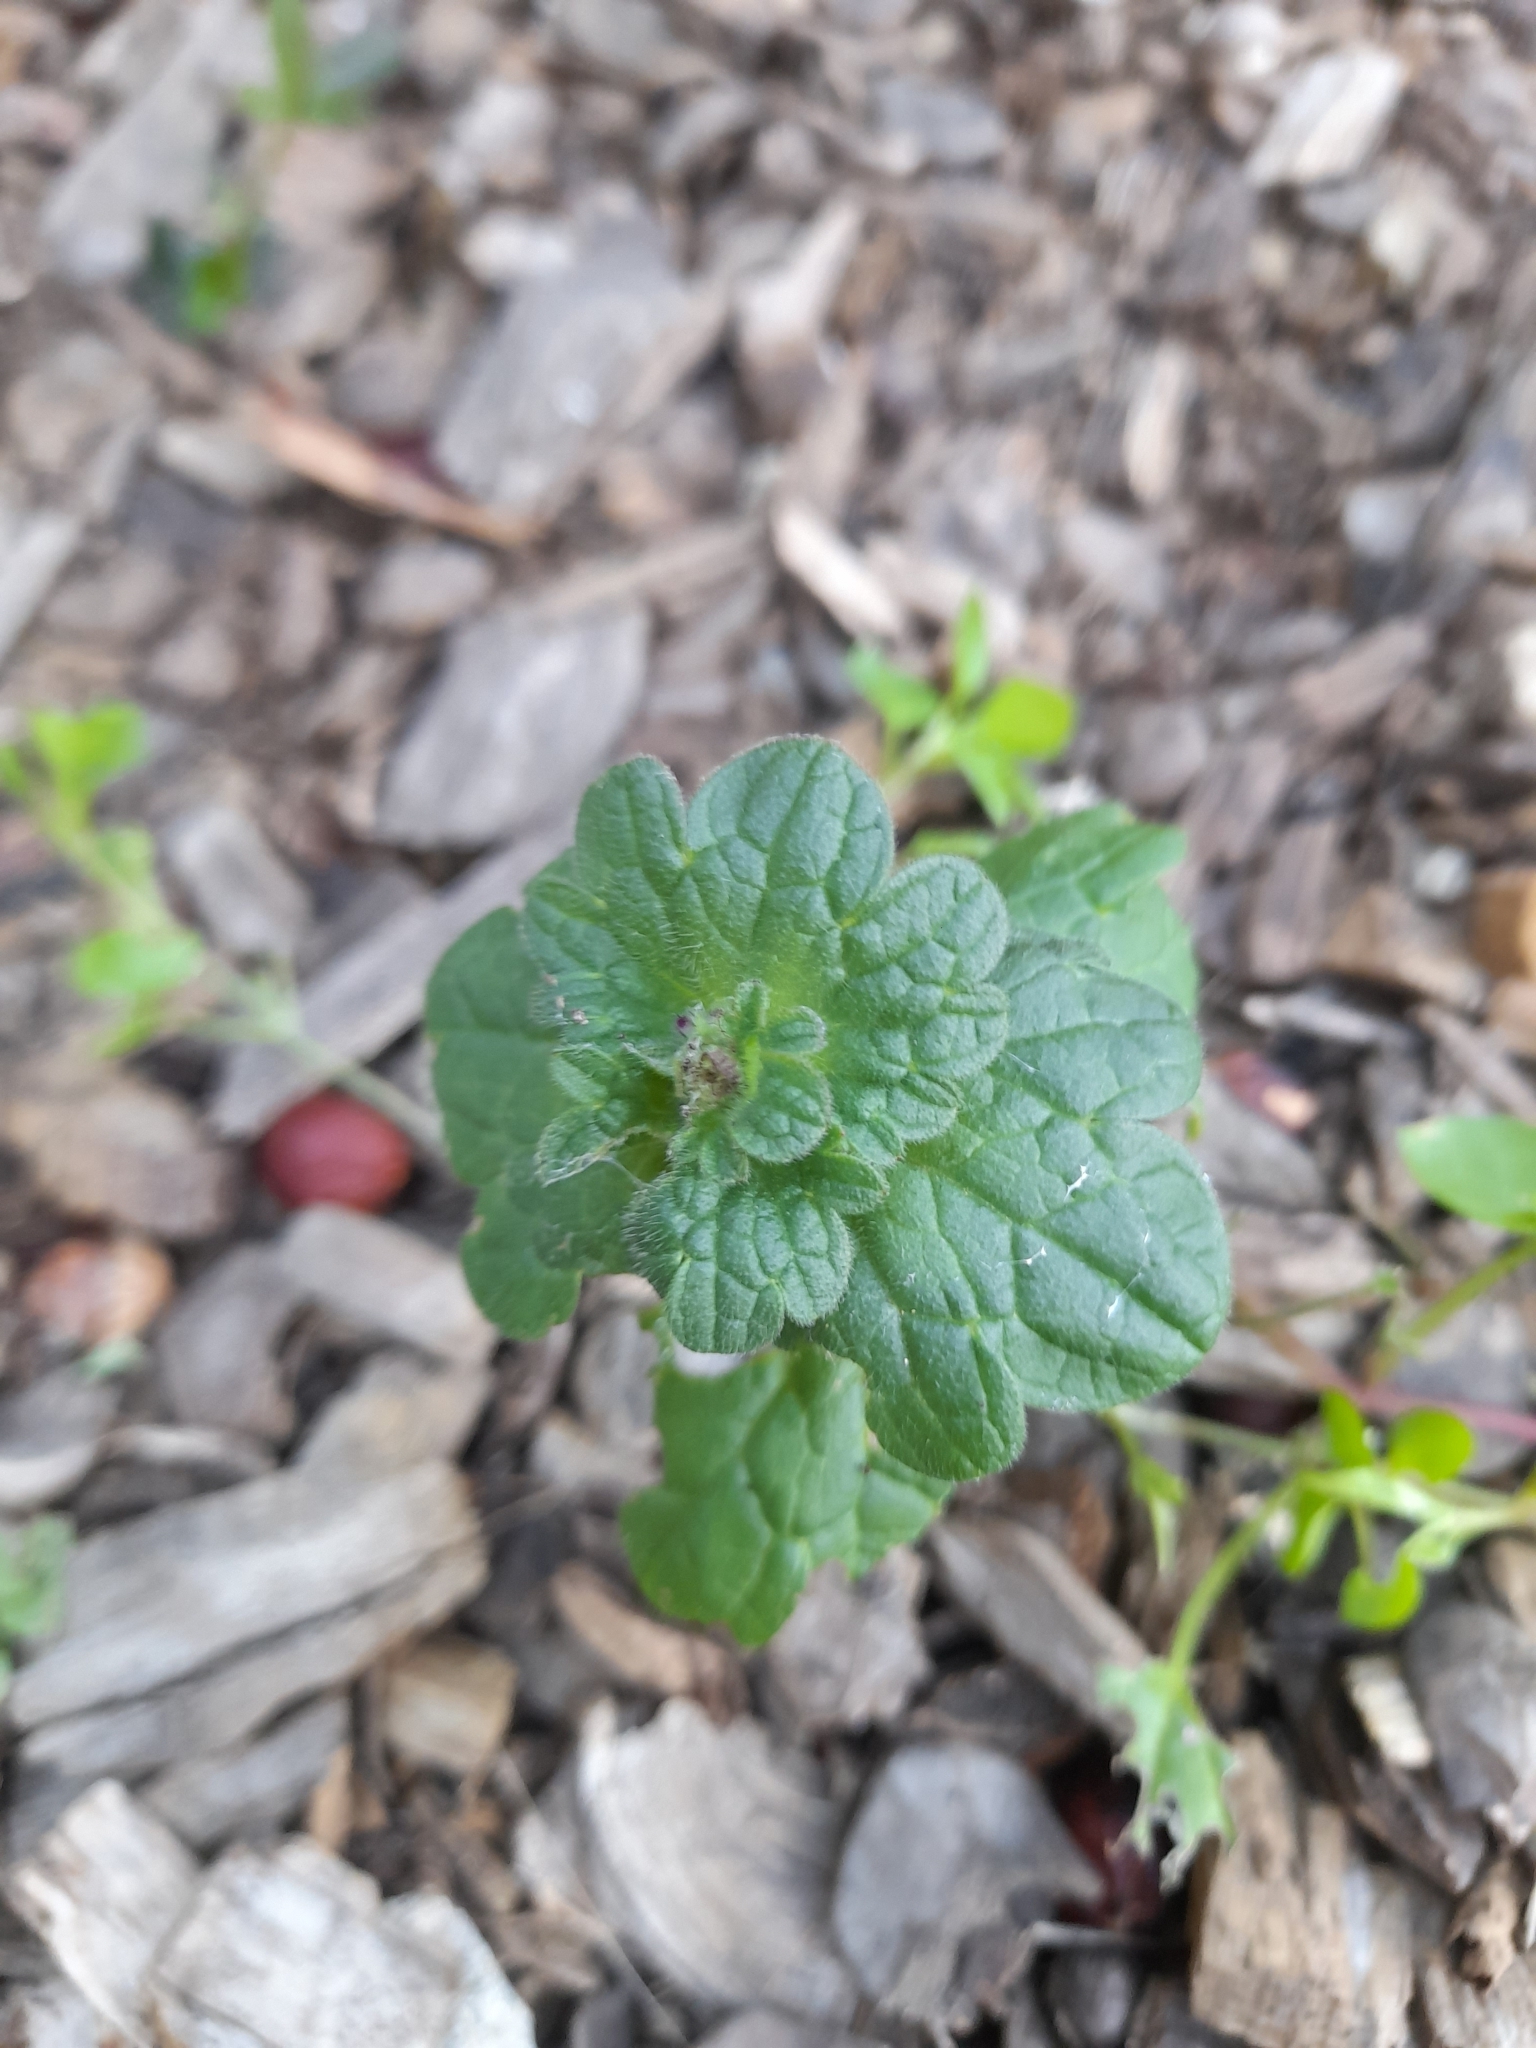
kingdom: Plantae
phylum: Tracheophyta
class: Magnoliopsida
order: Lamiales
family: Lamiaceae
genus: Lamium
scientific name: Lamium amplexicaule
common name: Henbit dead-nettle
